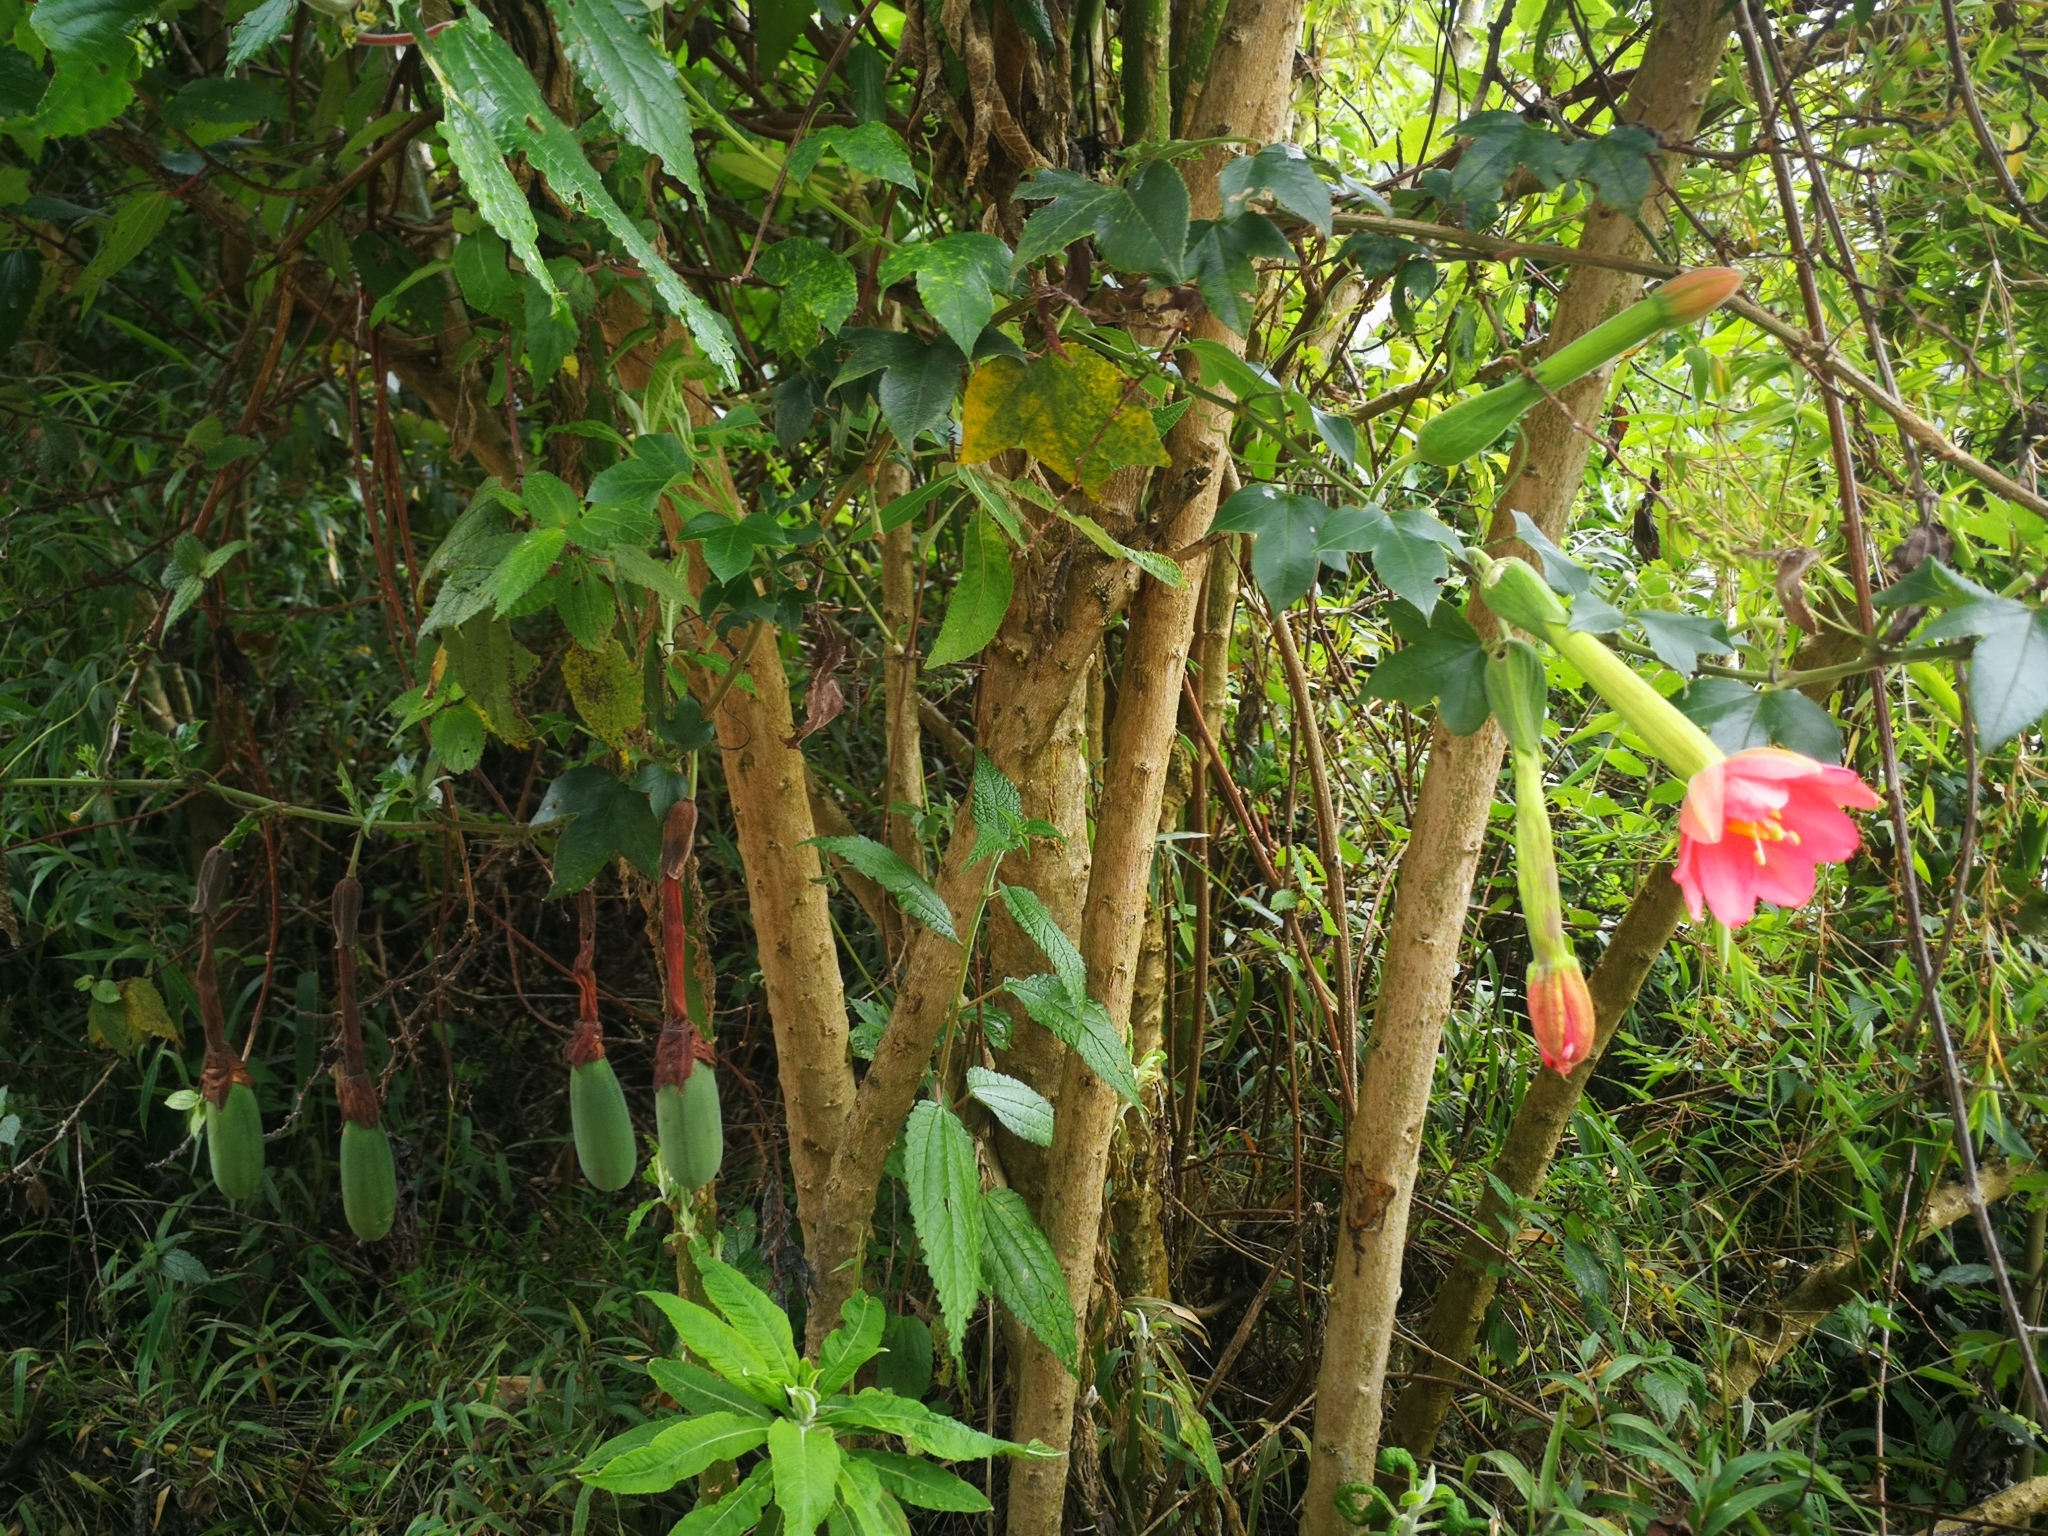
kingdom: Plantae
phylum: Tracheophyta
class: Magnoliopsida
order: Malpighiales
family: Passifloraceae
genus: Passiflora
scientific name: Passiflora mixta
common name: Passion flower
